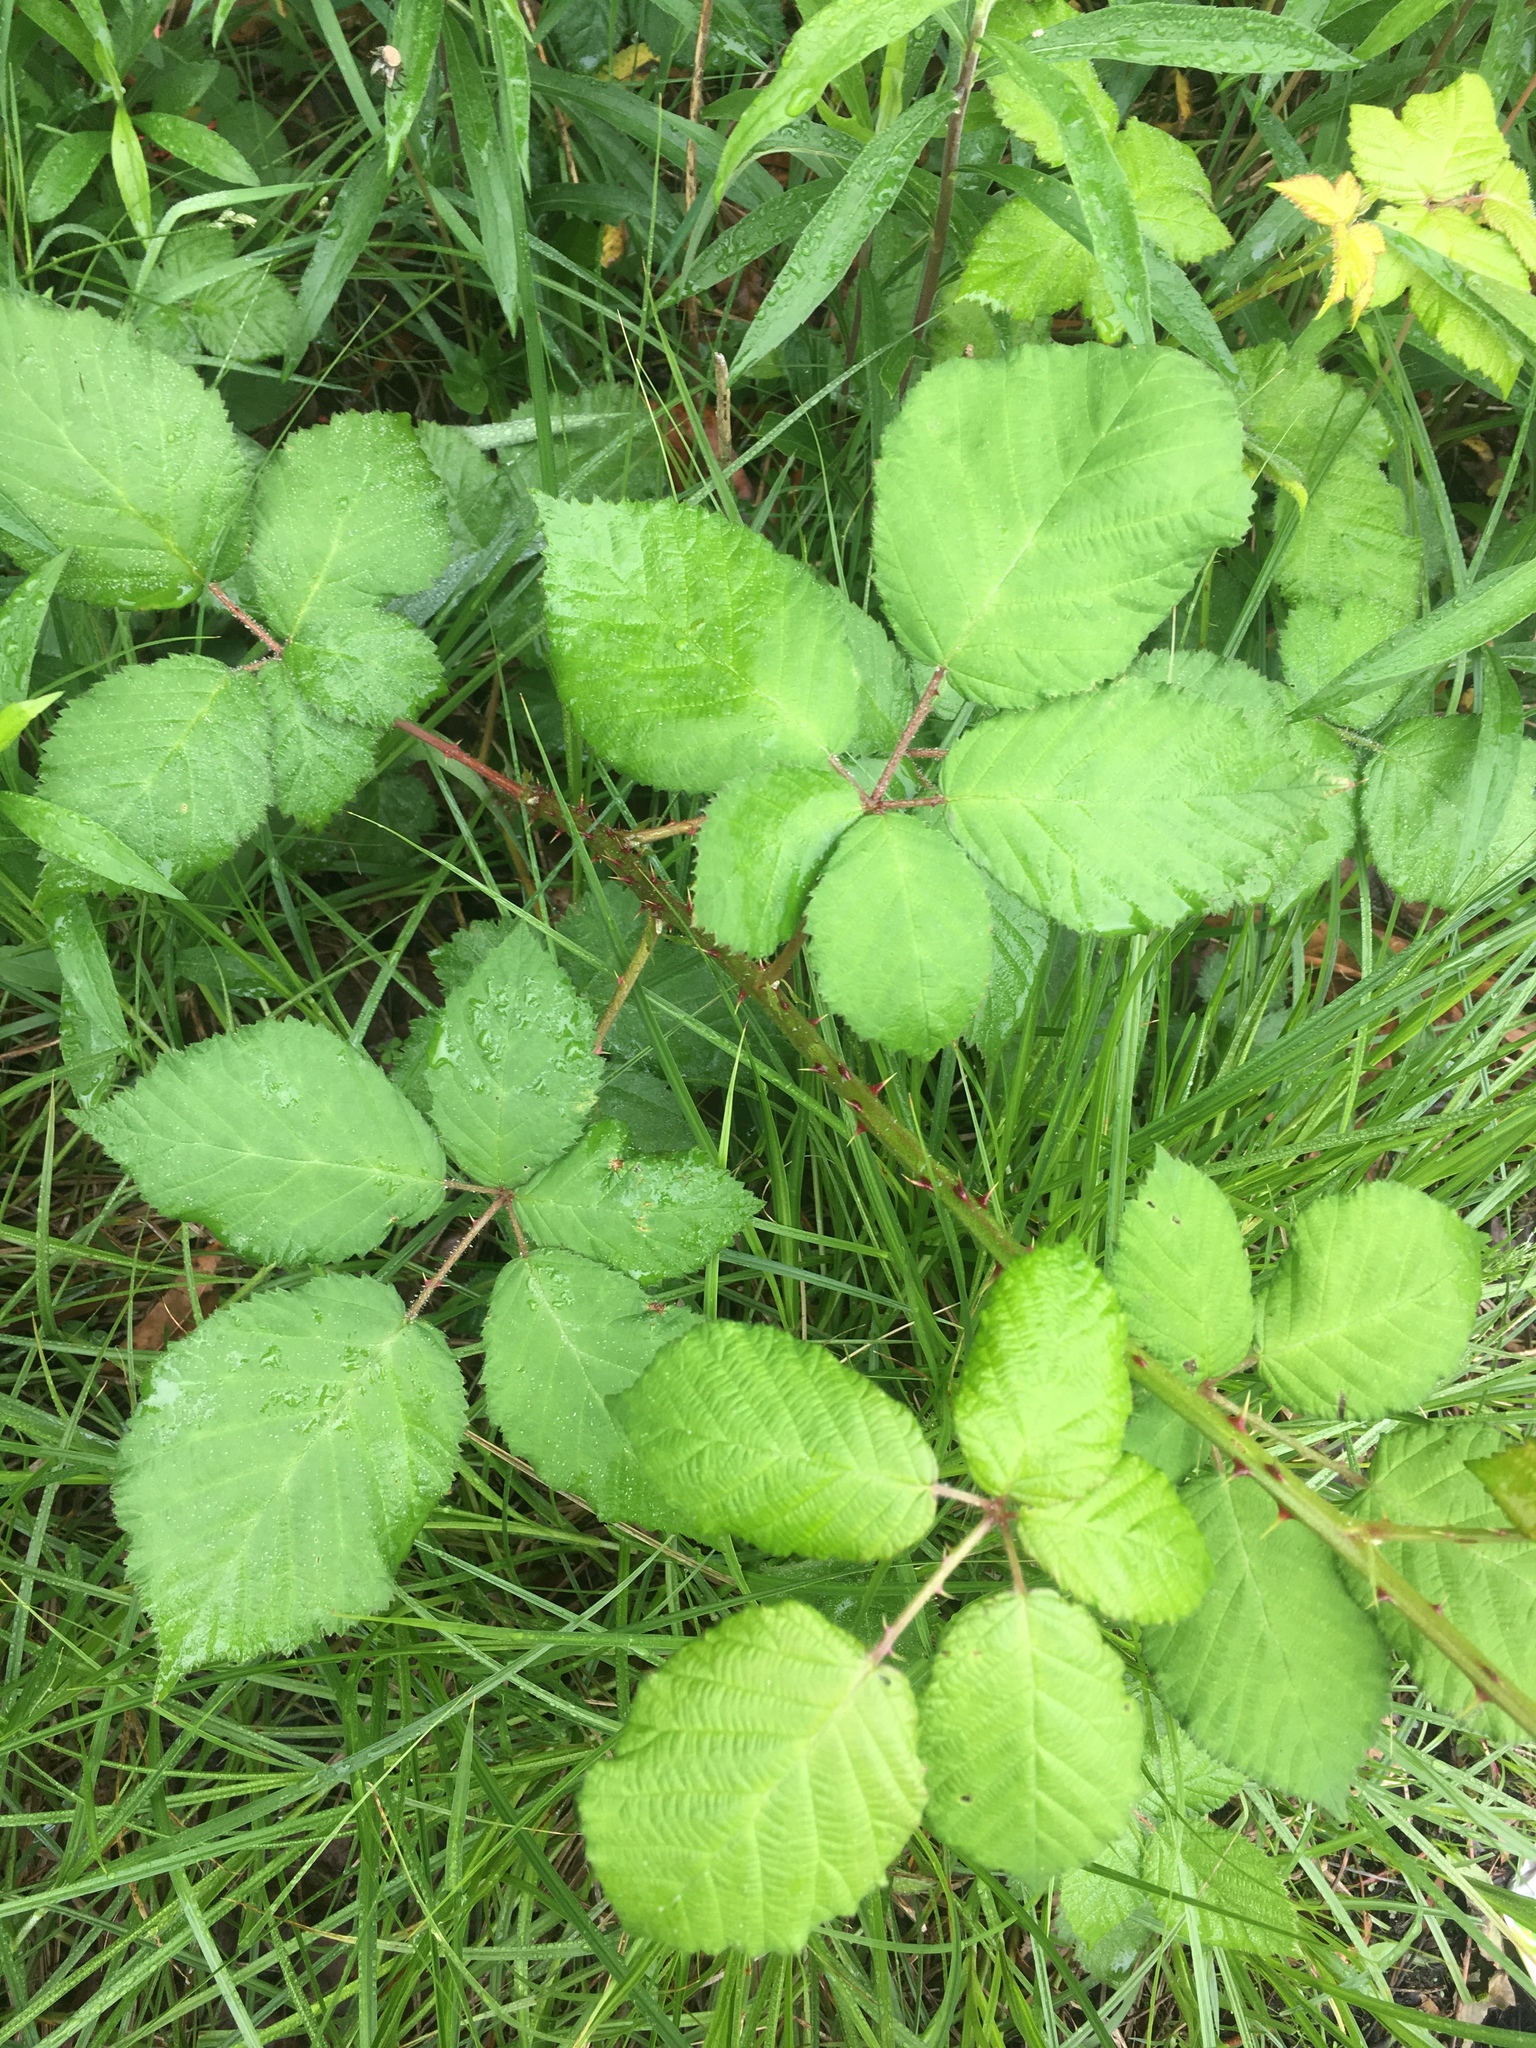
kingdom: Plantae
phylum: Tracheophyta
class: Magnoliopsida
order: Rosales
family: Rosaceae
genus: Rubus
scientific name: Rubus armeniacus
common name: Himalayan blackberry
